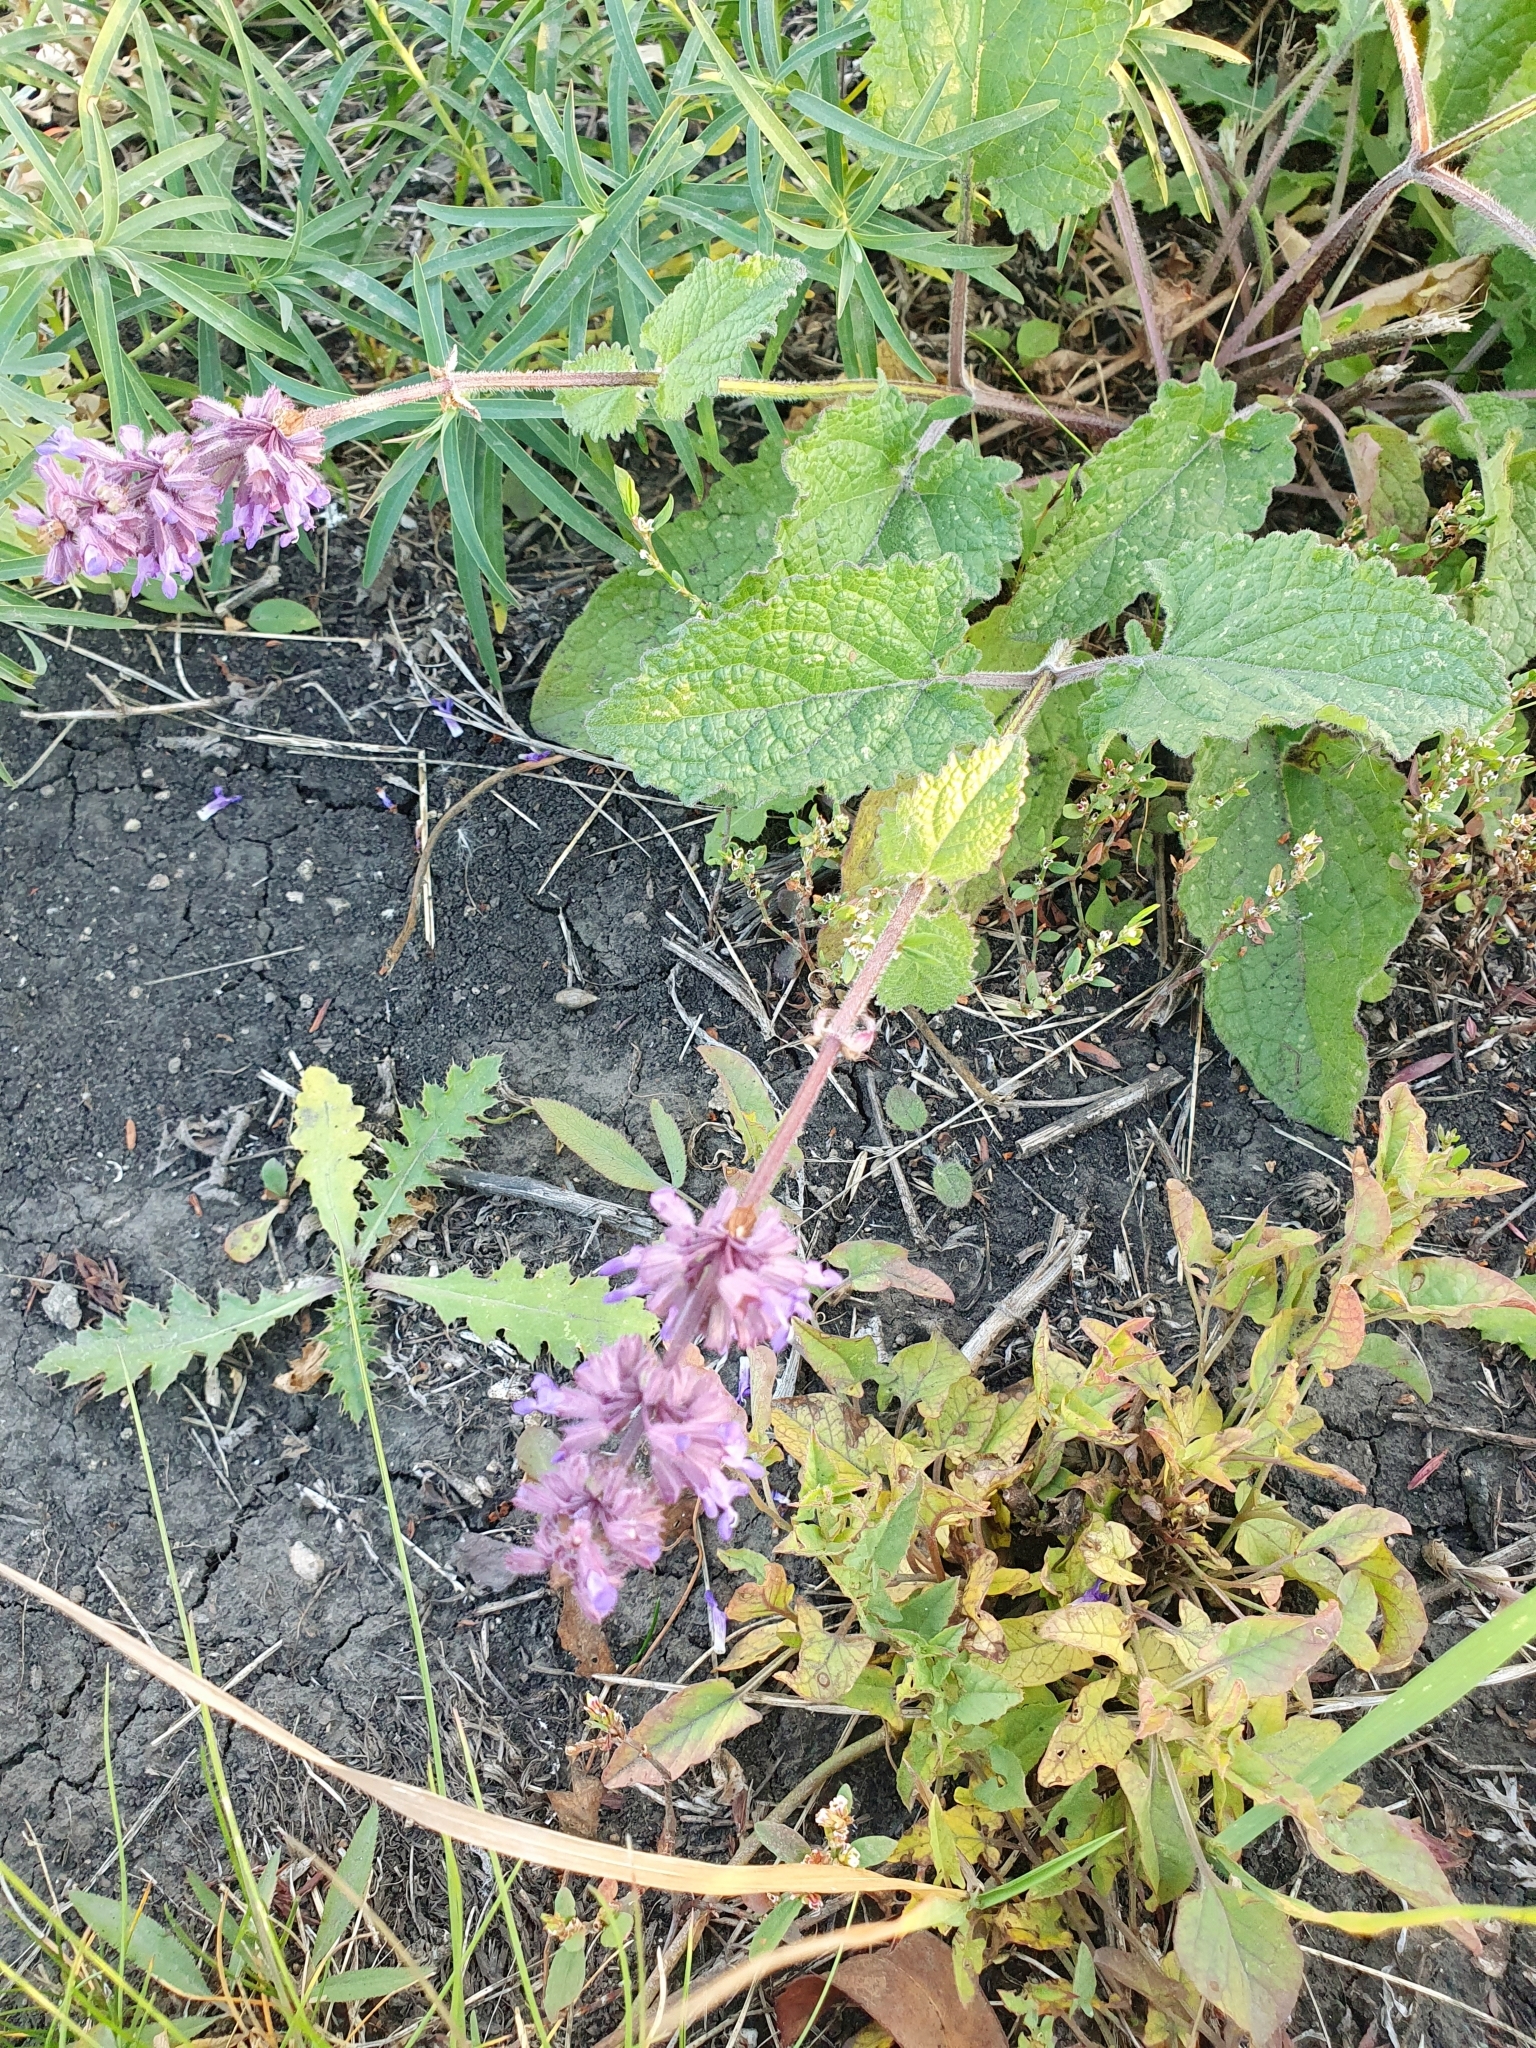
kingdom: Plantae
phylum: Tracheophyta
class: Magnoliopsida
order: Lamiales
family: Lamiaceae
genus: Salvia
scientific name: Salvia verticillata
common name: Whorled clary
